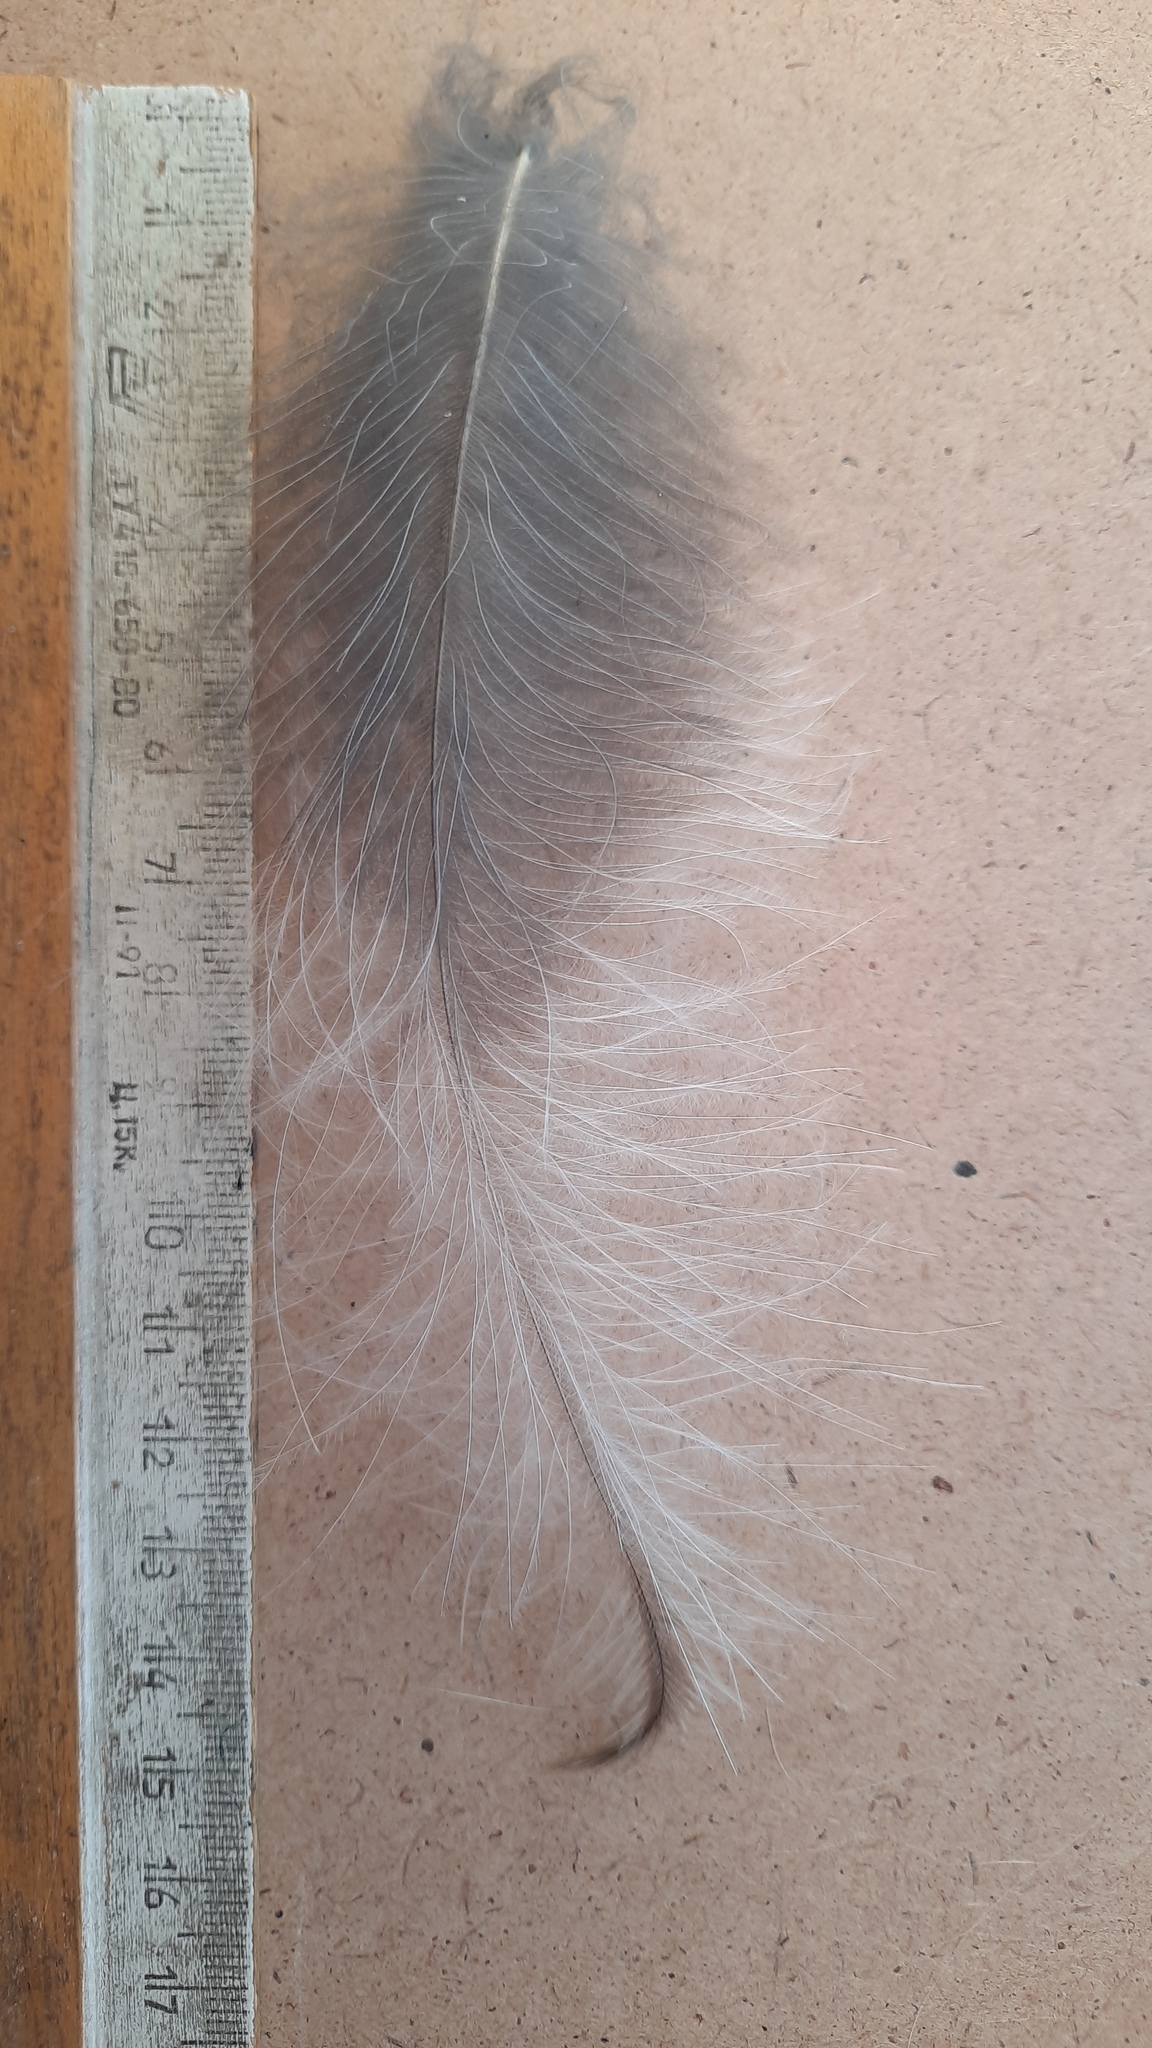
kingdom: Animalia
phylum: Chordata
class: Aves
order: Strigiformes
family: Strigidae
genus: Strix
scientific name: Strix uralensis
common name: Ural owl
